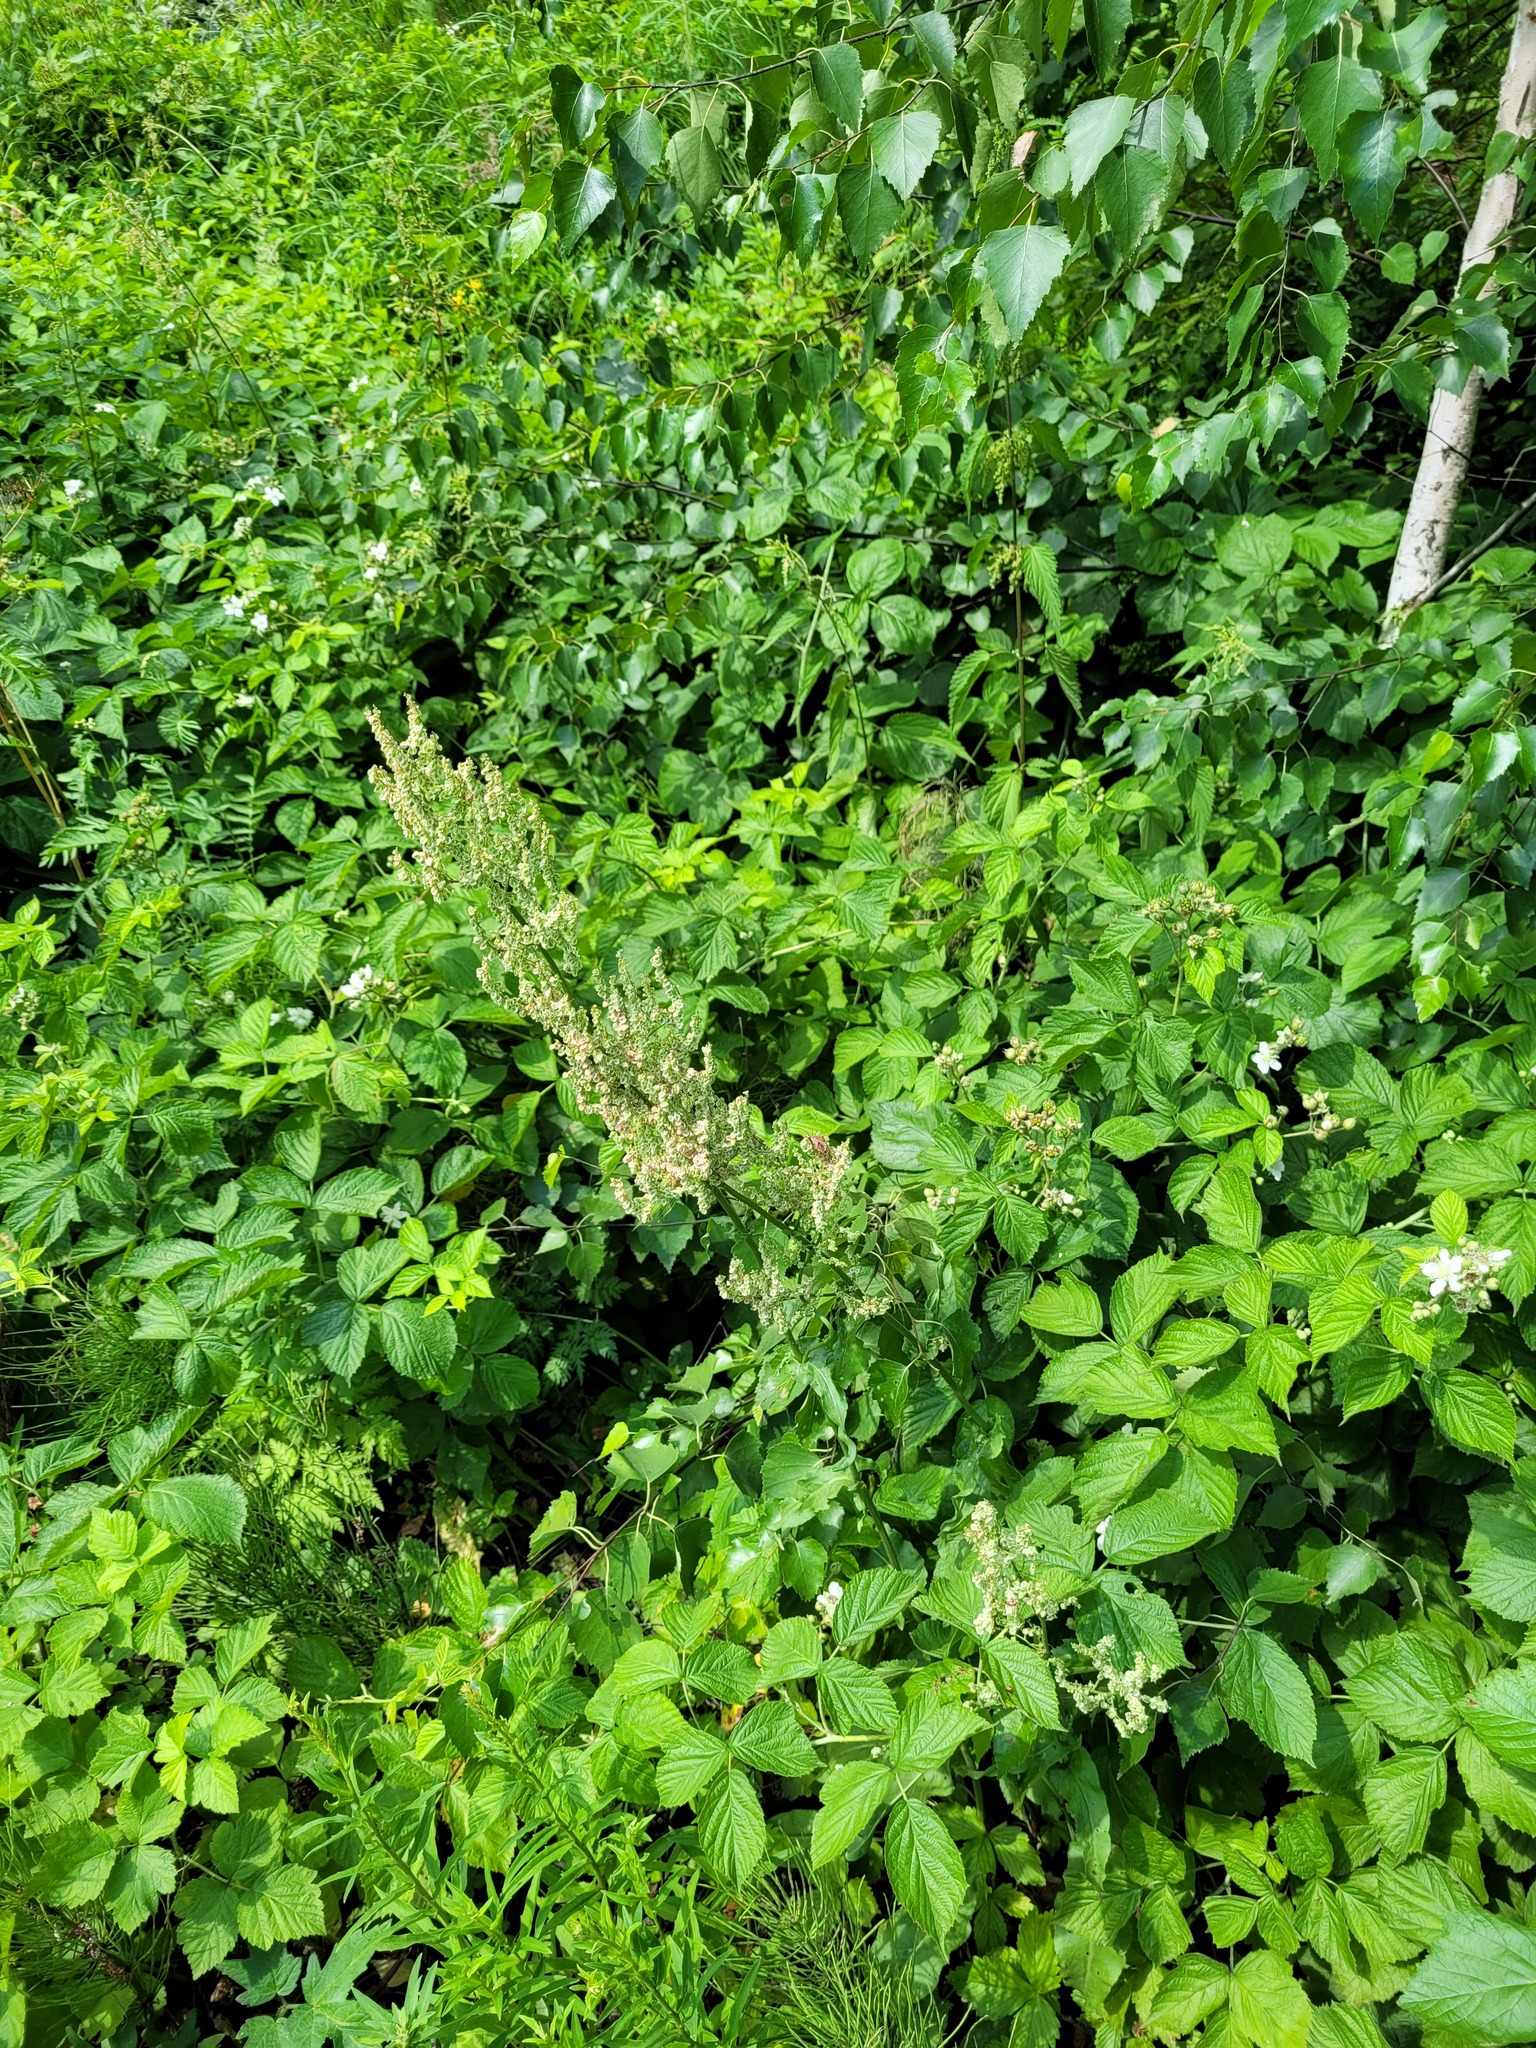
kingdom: Plantae
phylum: Tracheophyta
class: Magnoliopsida
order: Caryophyllales
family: Polygonaceae
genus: Rumex
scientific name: Rumex thyrsiflorus
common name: Garden sorrel
